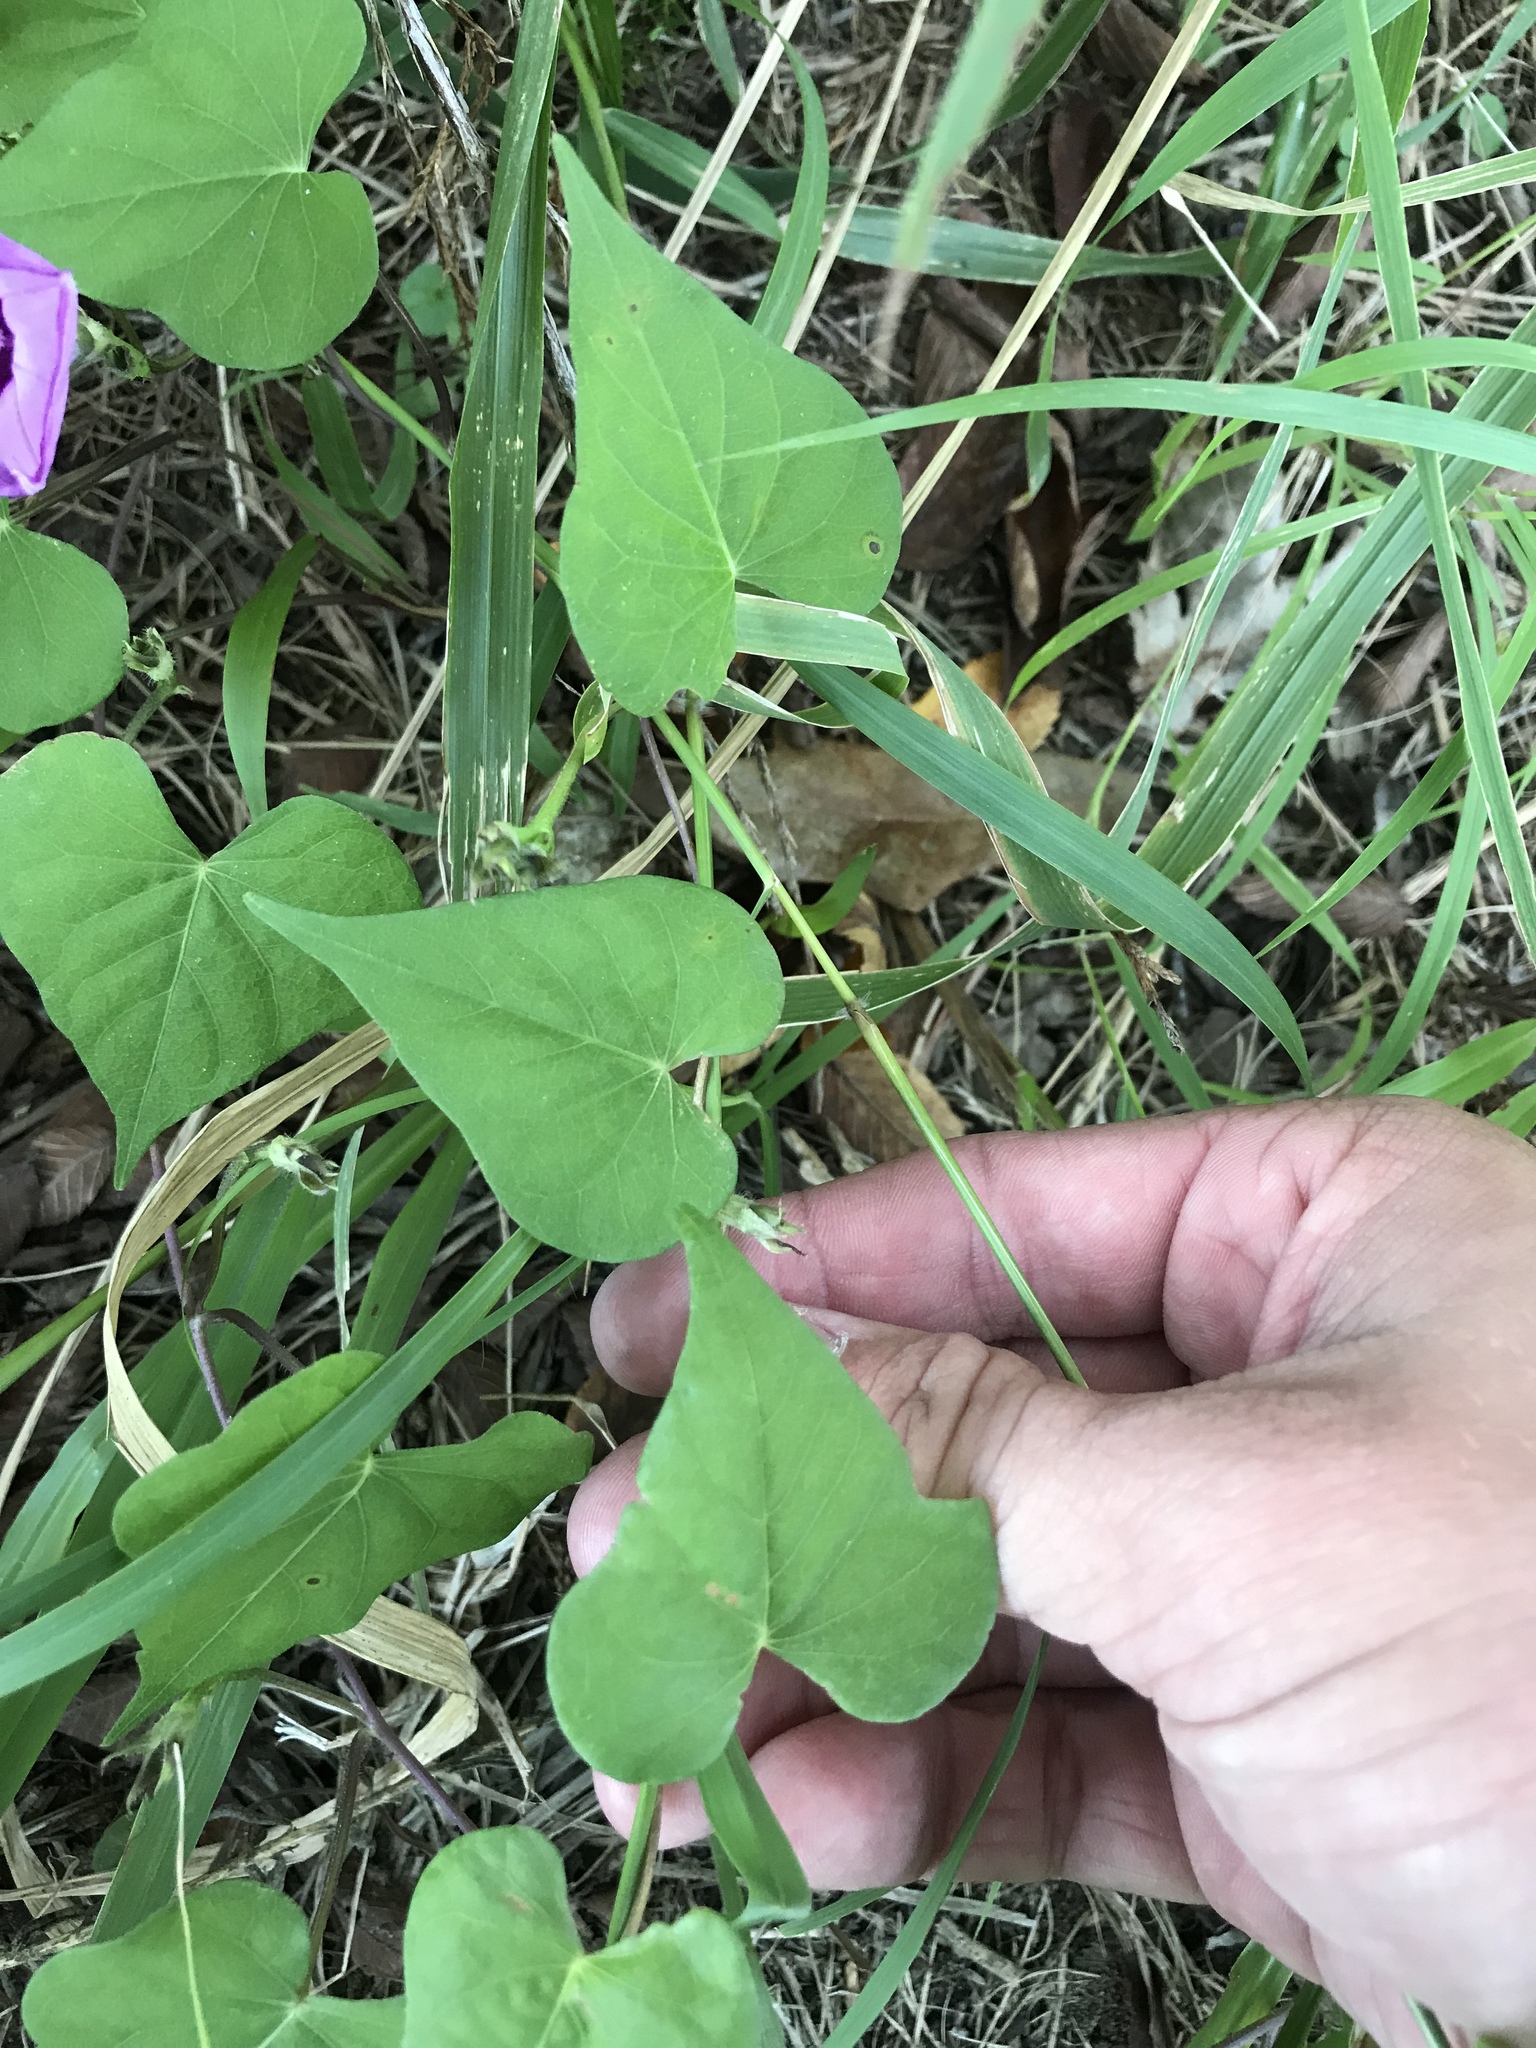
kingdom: Plantae
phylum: Tracheophyta
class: Magnoliopsida
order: Solanales
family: Convolvulaceae
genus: Ipomoea
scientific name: Ipomoea cordatotriloba
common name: Cotton morning glory
